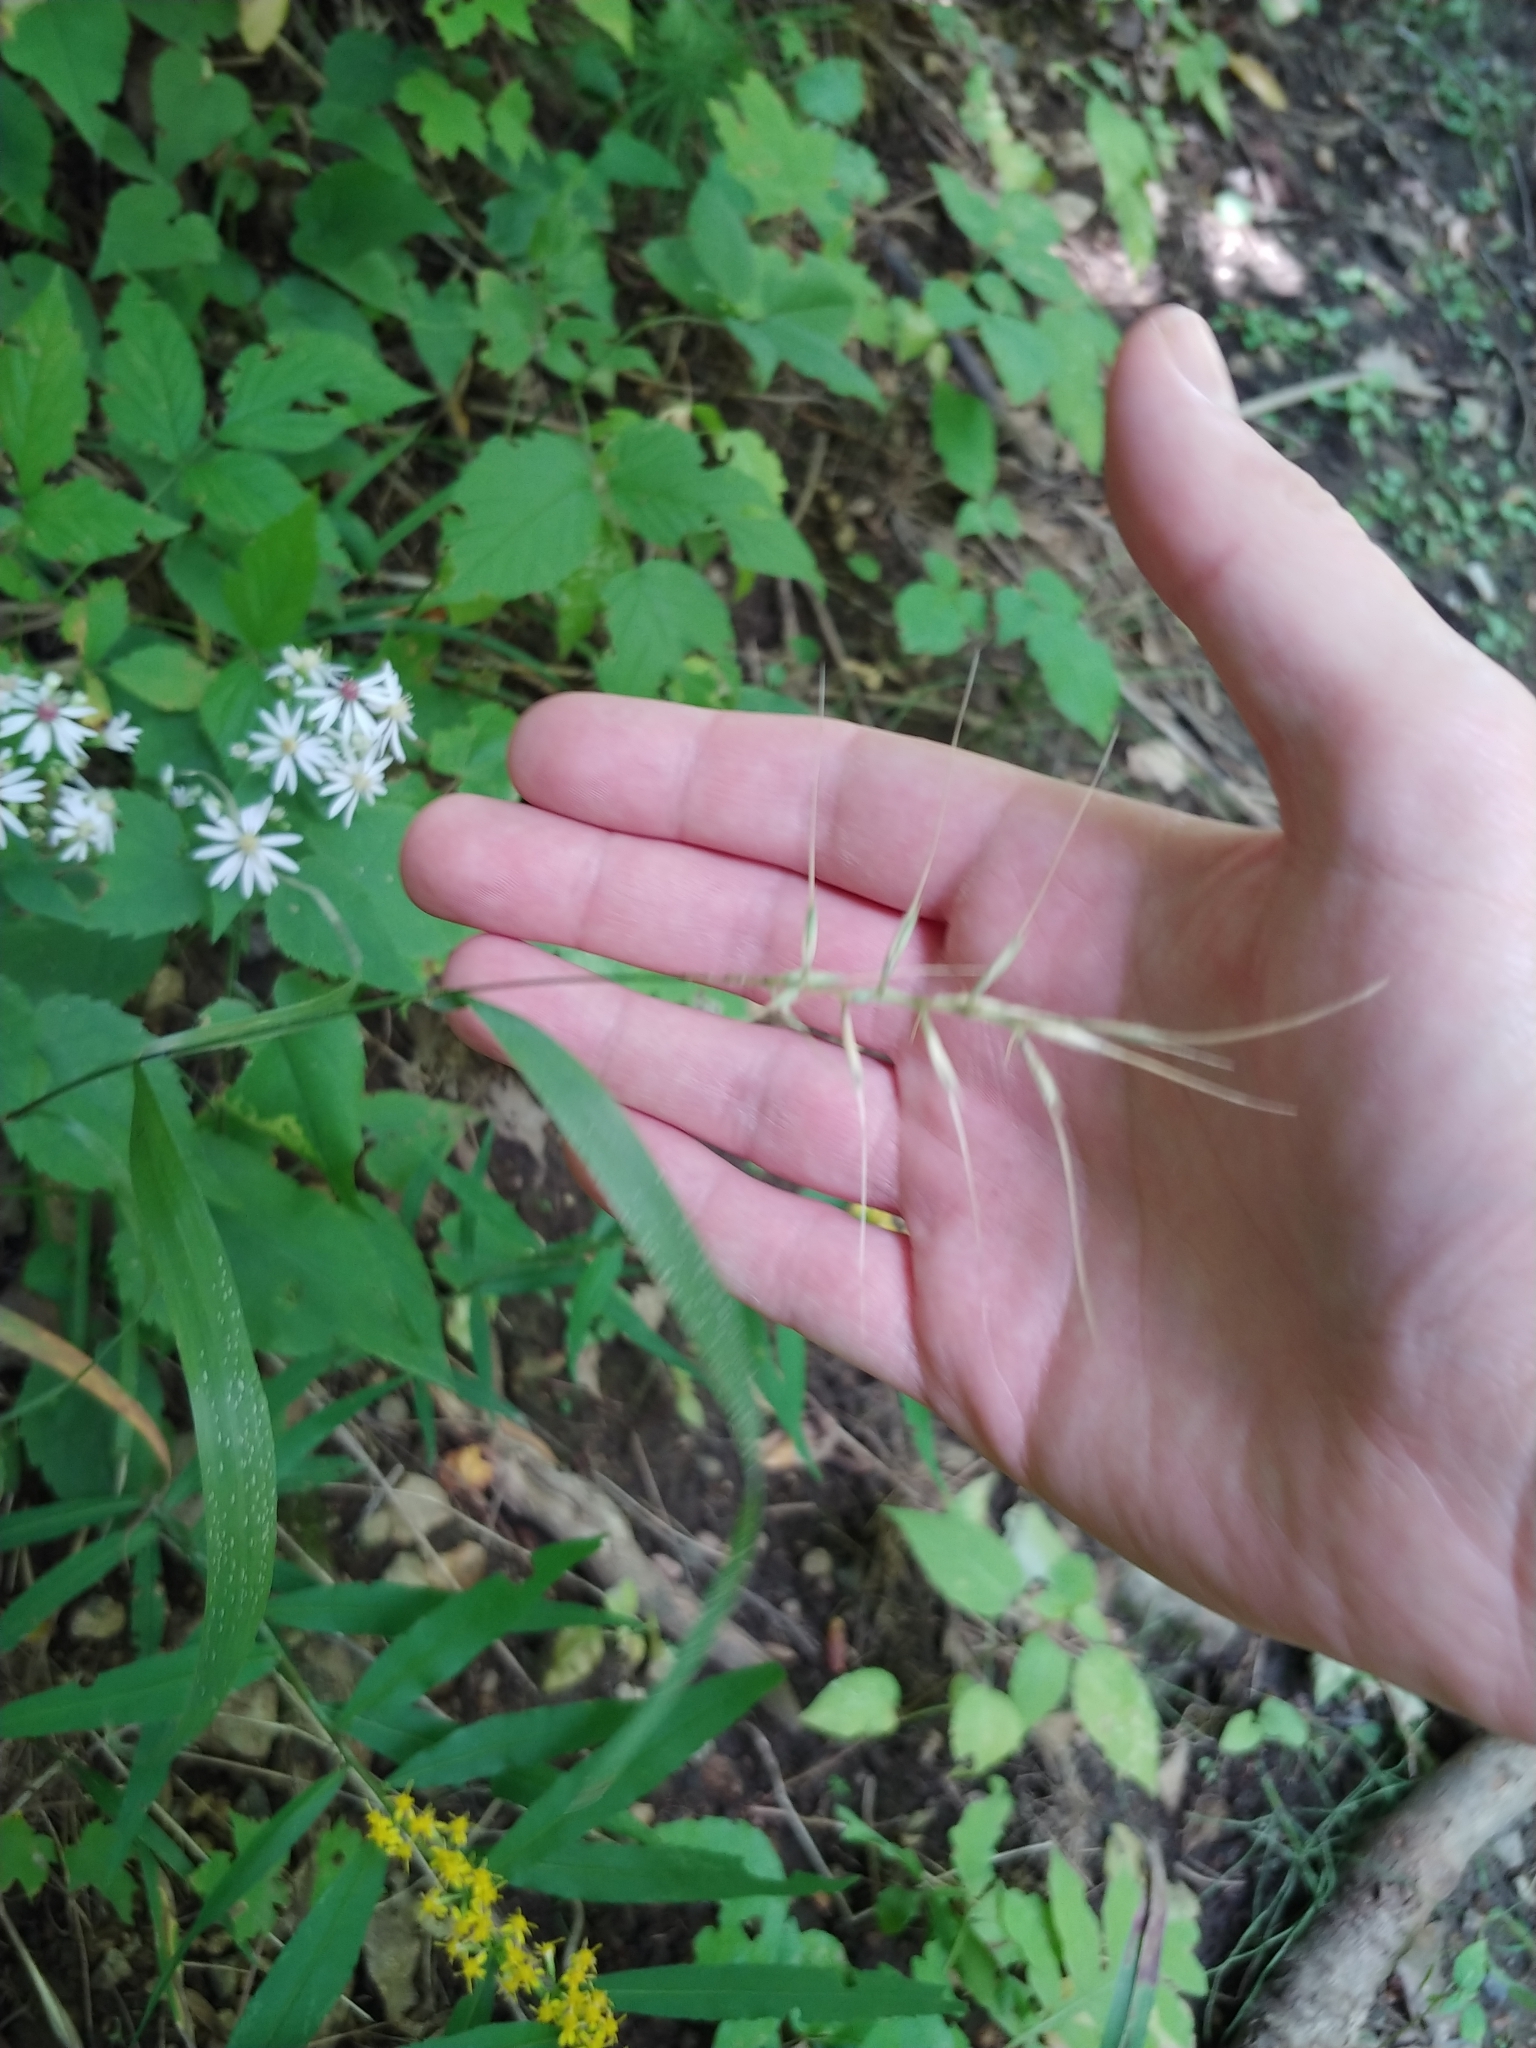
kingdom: Plantae
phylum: Tracheophyta
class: Liliopsida
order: Poales
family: Poaceae
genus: Elymus
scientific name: Elymus hystrix
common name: Bottlebrush grass
